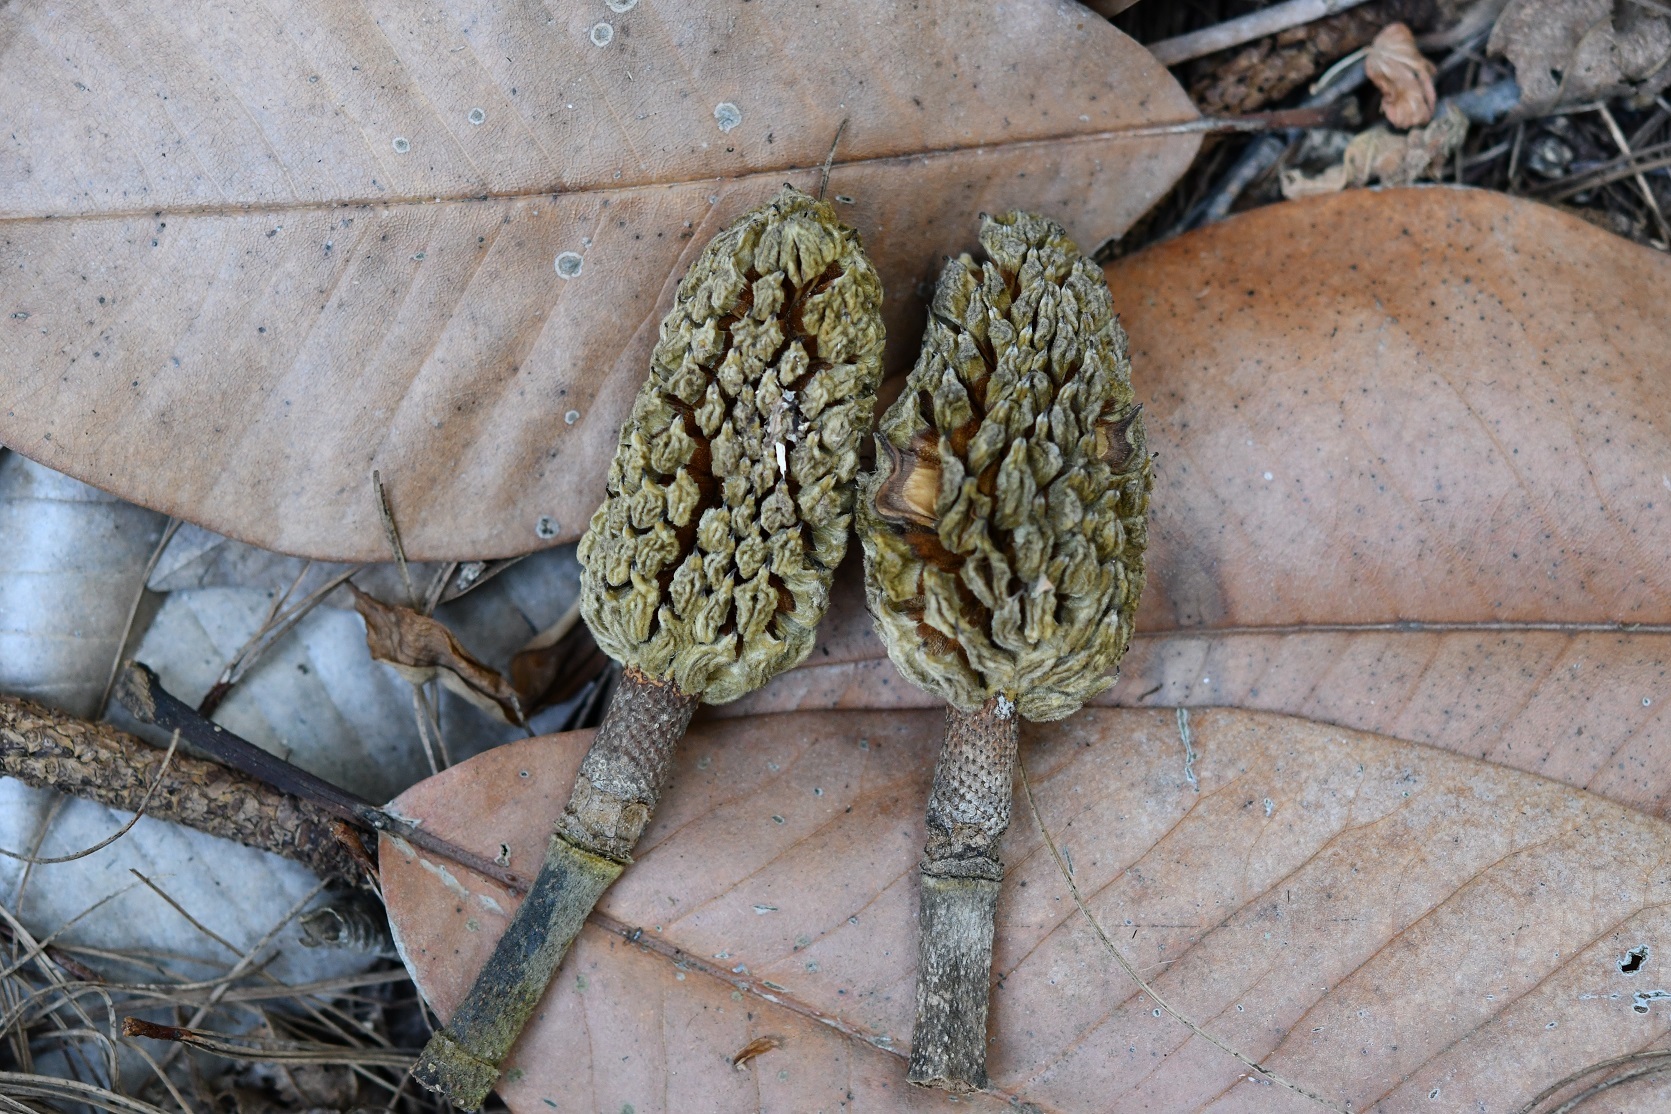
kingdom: Plantae
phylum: Tracheophyta
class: Magnoliopsida
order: Magnoliales
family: Magnoliaceae
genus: Magnolia
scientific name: Magnolia sharpii
